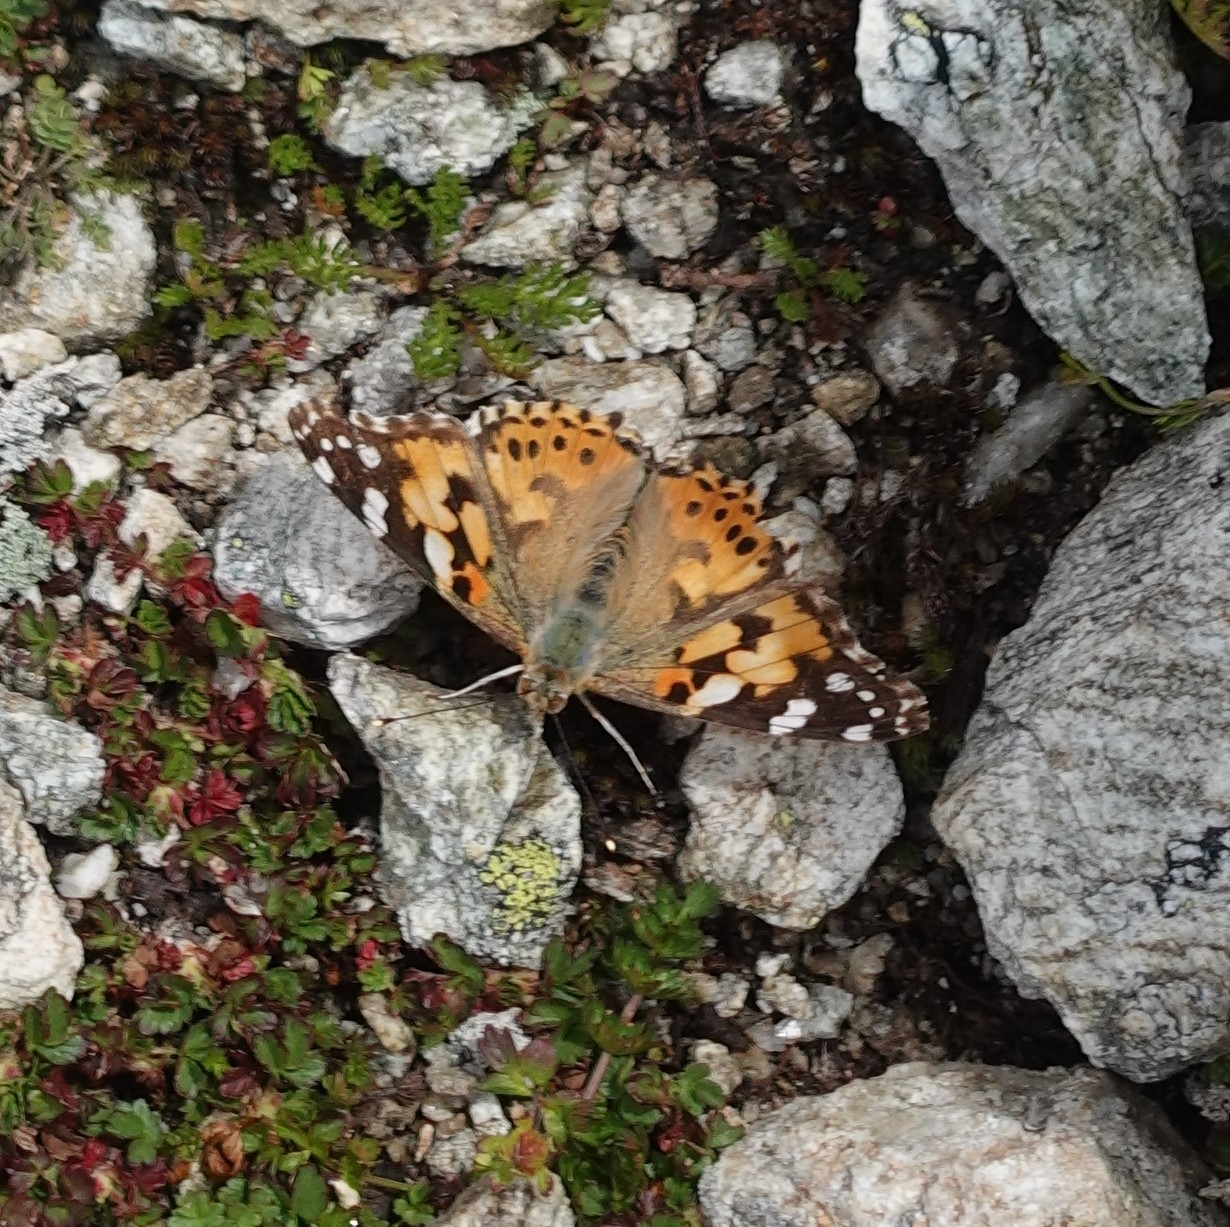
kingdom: Animalia
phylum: Arthropoda
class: Insecta
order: Lepidoptera
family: Nymphalidae
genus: Vanessa
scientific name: Vanessa cardui
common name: Painted lady
